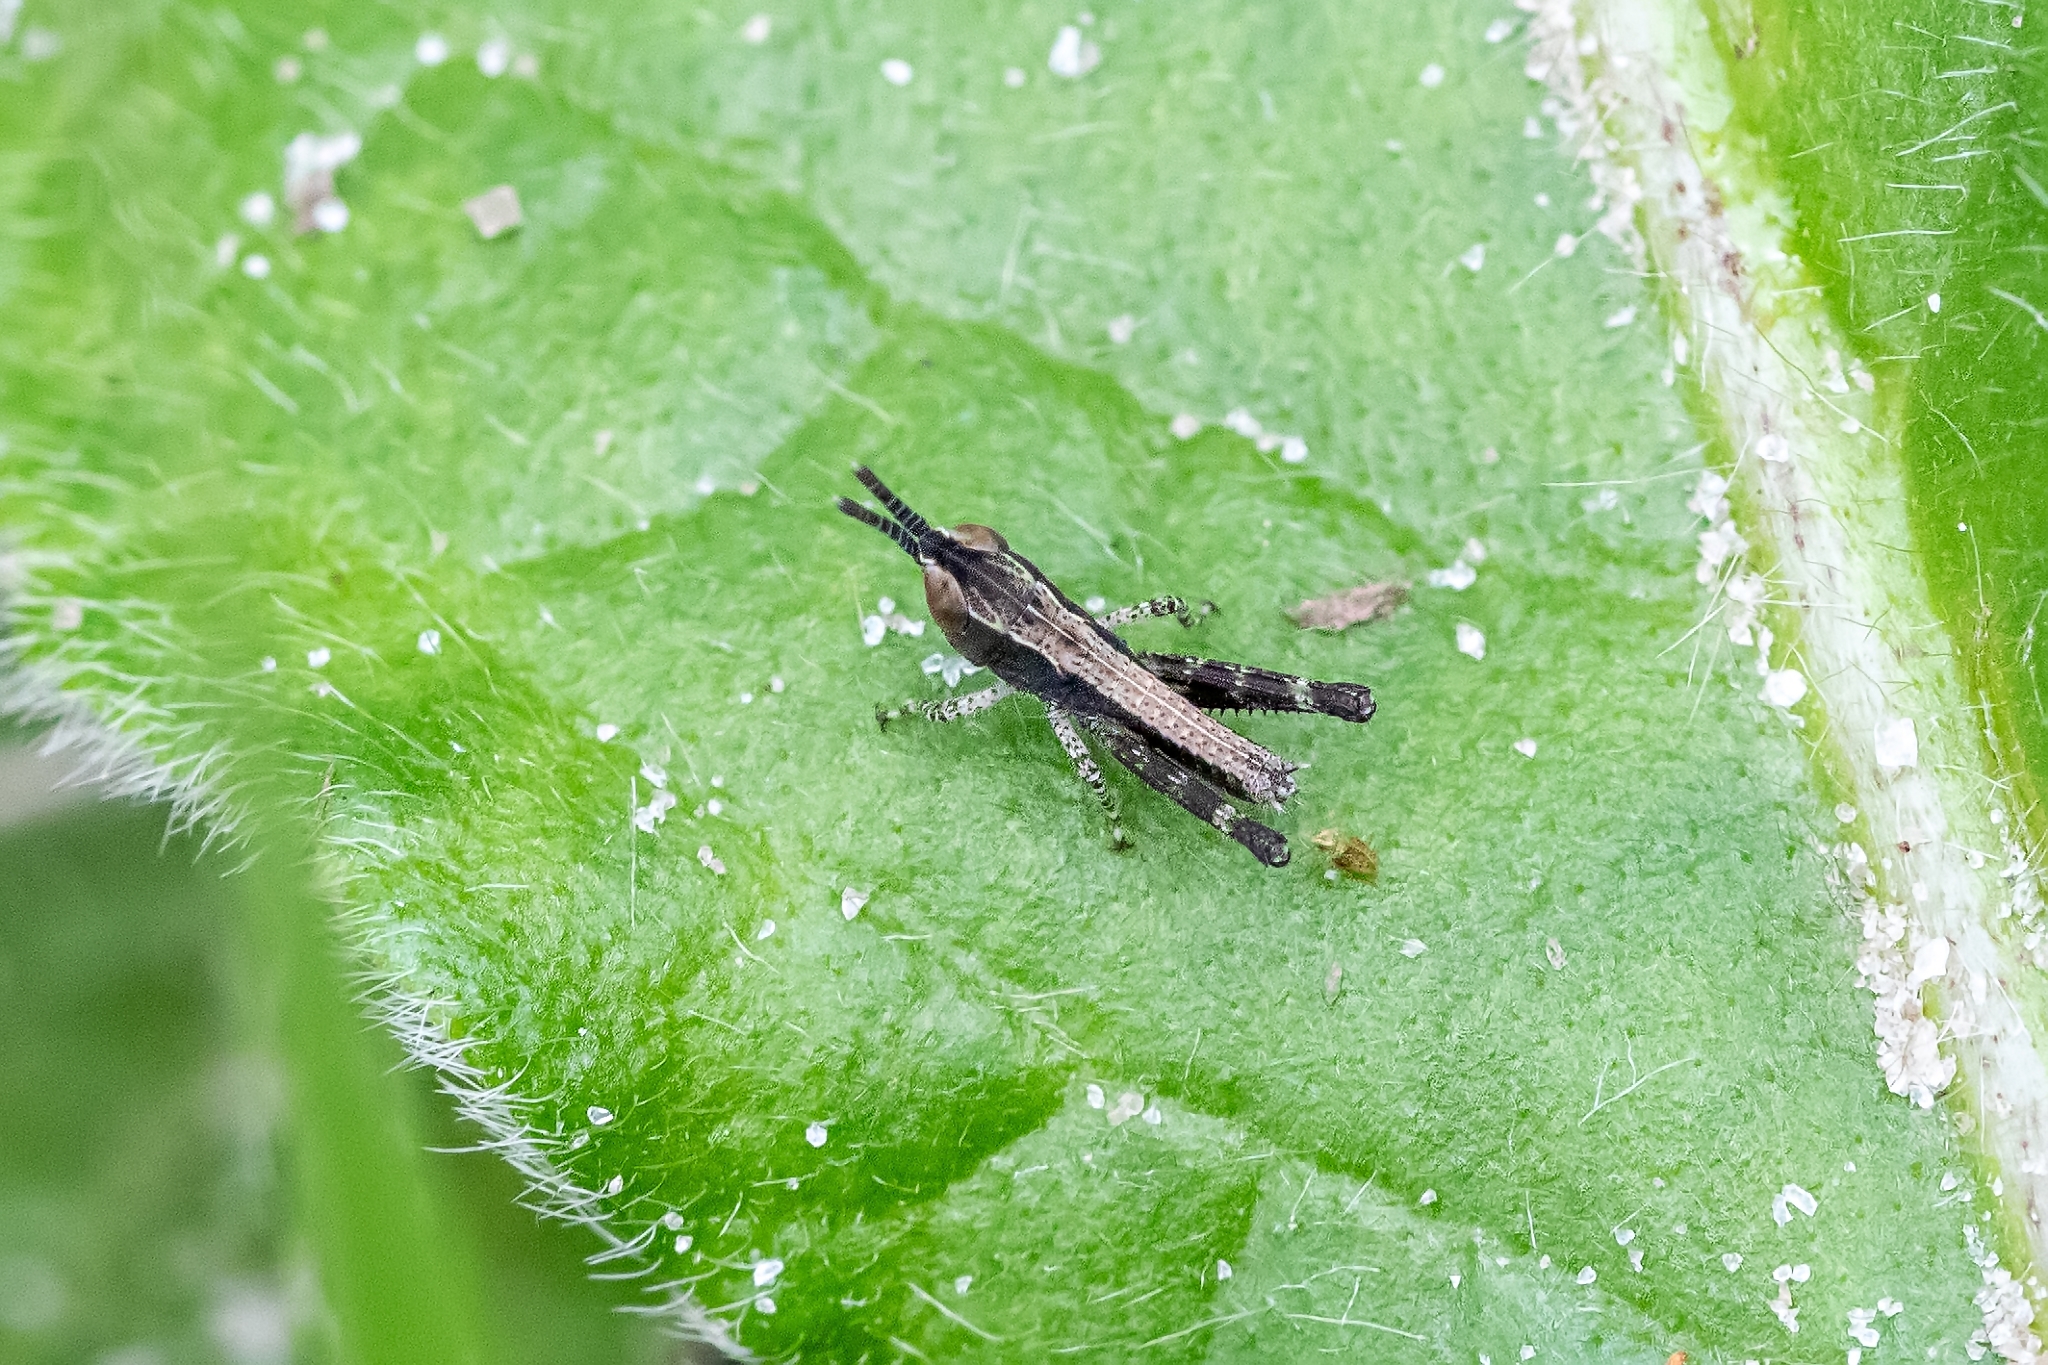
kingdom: Animalia
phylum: Arthropoda
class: Insecta
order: Orthoptera
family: Acrididae
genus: Dichromorpha
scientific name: Dichromorpha viridis
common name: Short-winged green grasshopper
